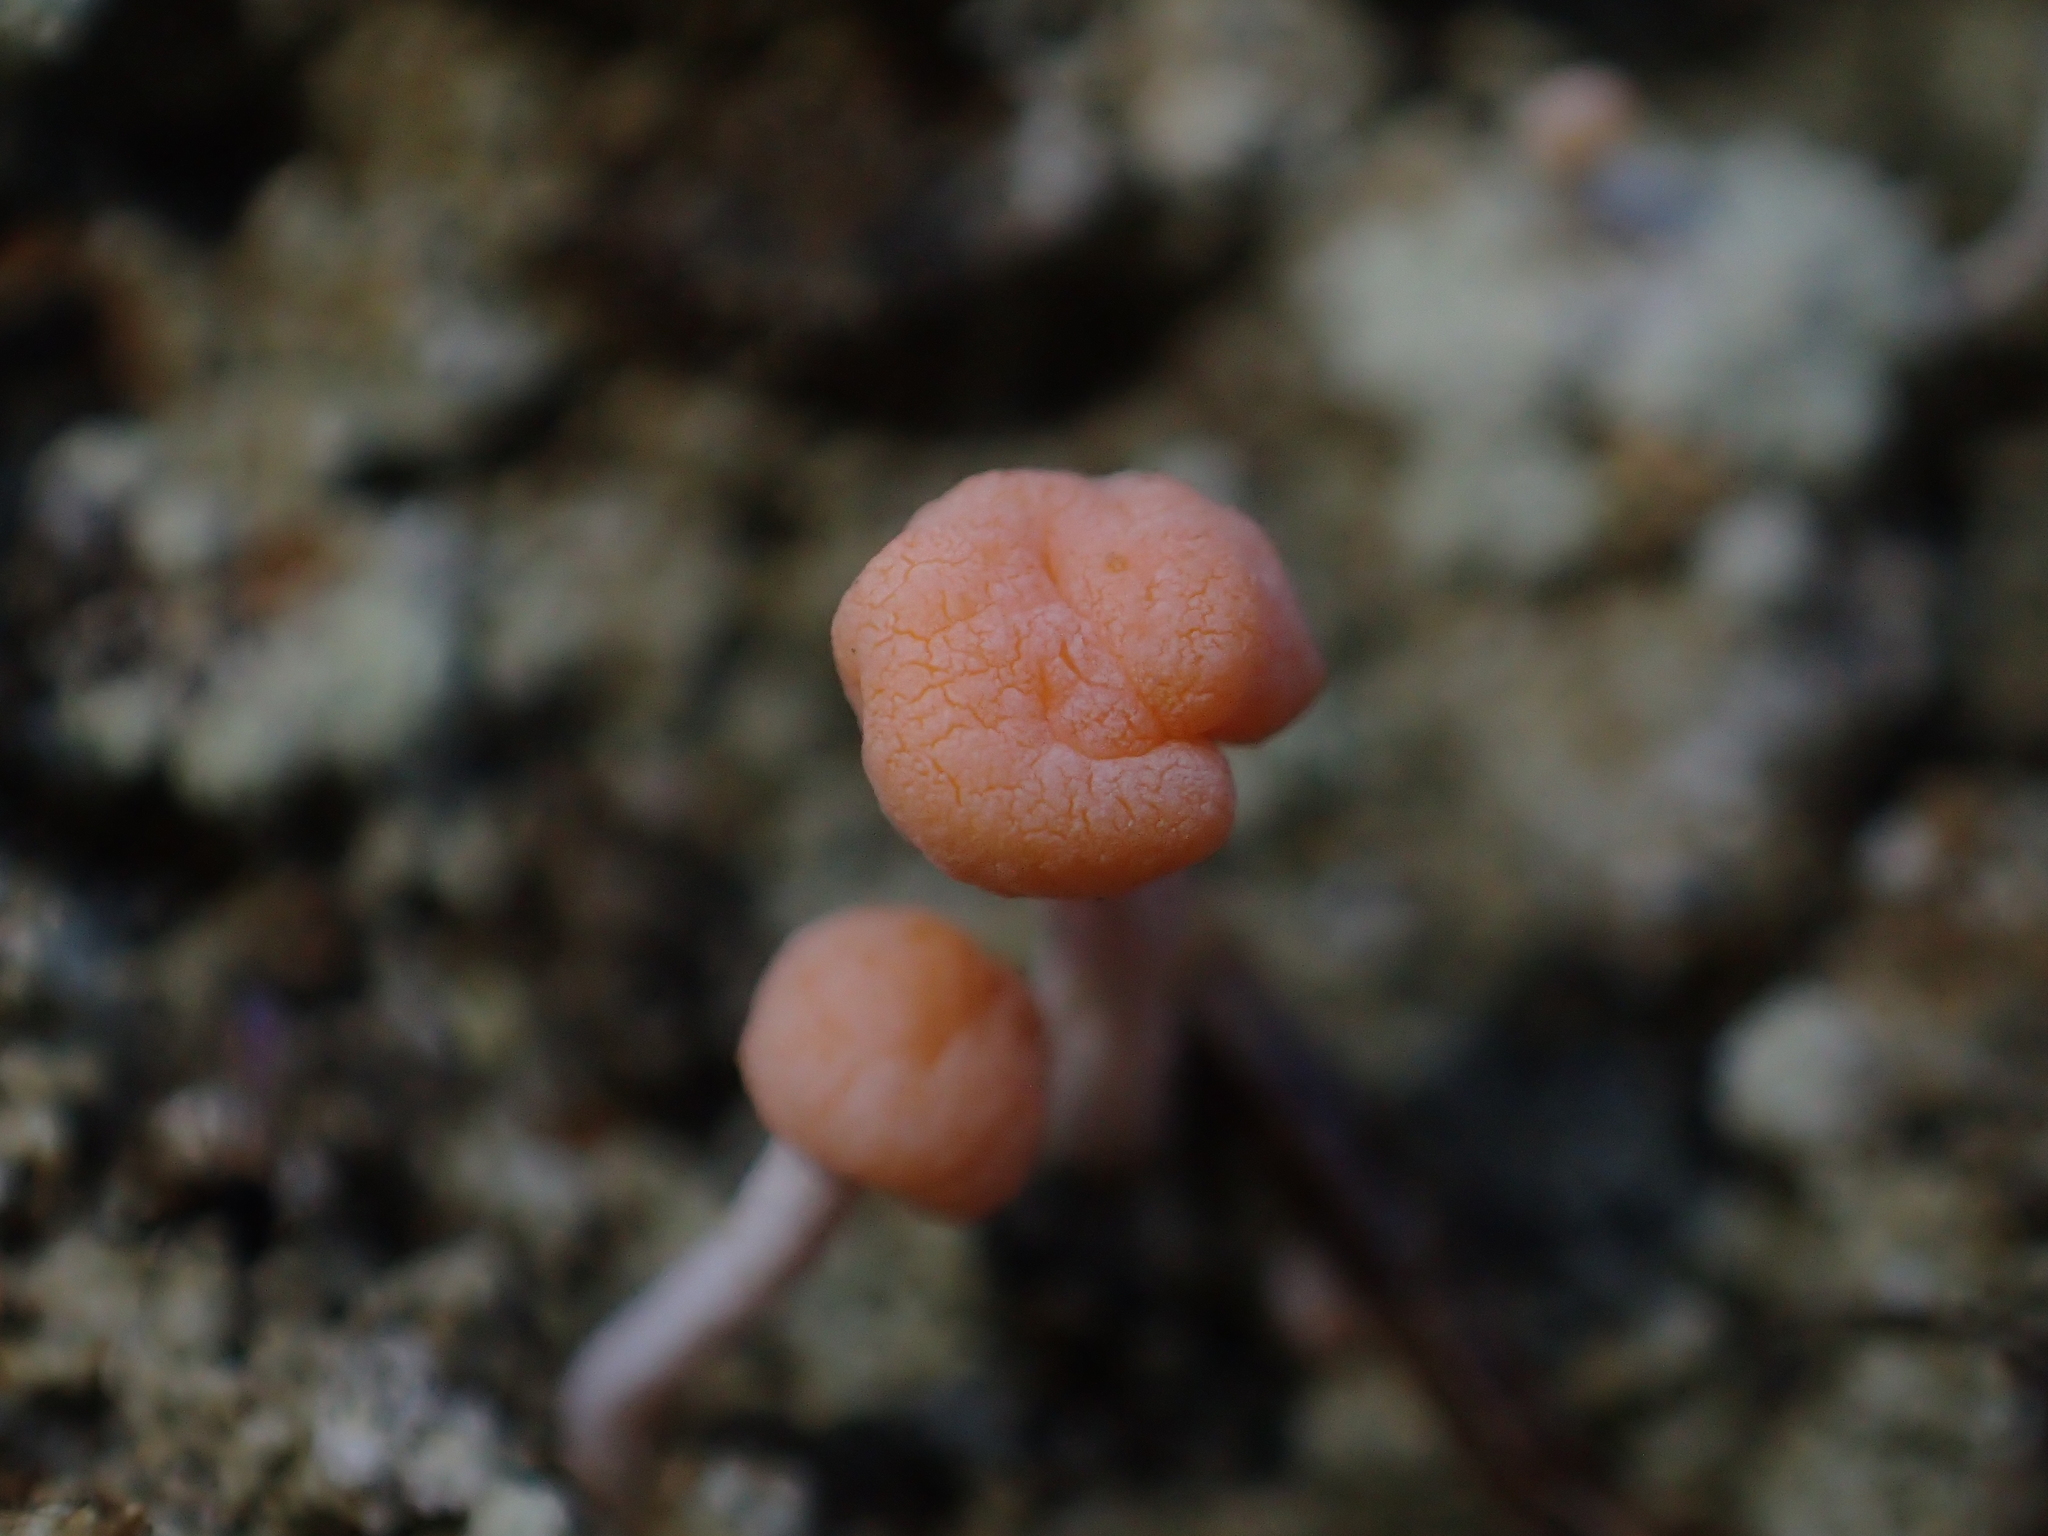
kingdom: Fungi
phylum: Ascomycota
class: Lecanoromycetes
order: Pertusariales
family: Icmadophilaceae
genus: Dibaeis
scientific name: Dibaeis arcuata
